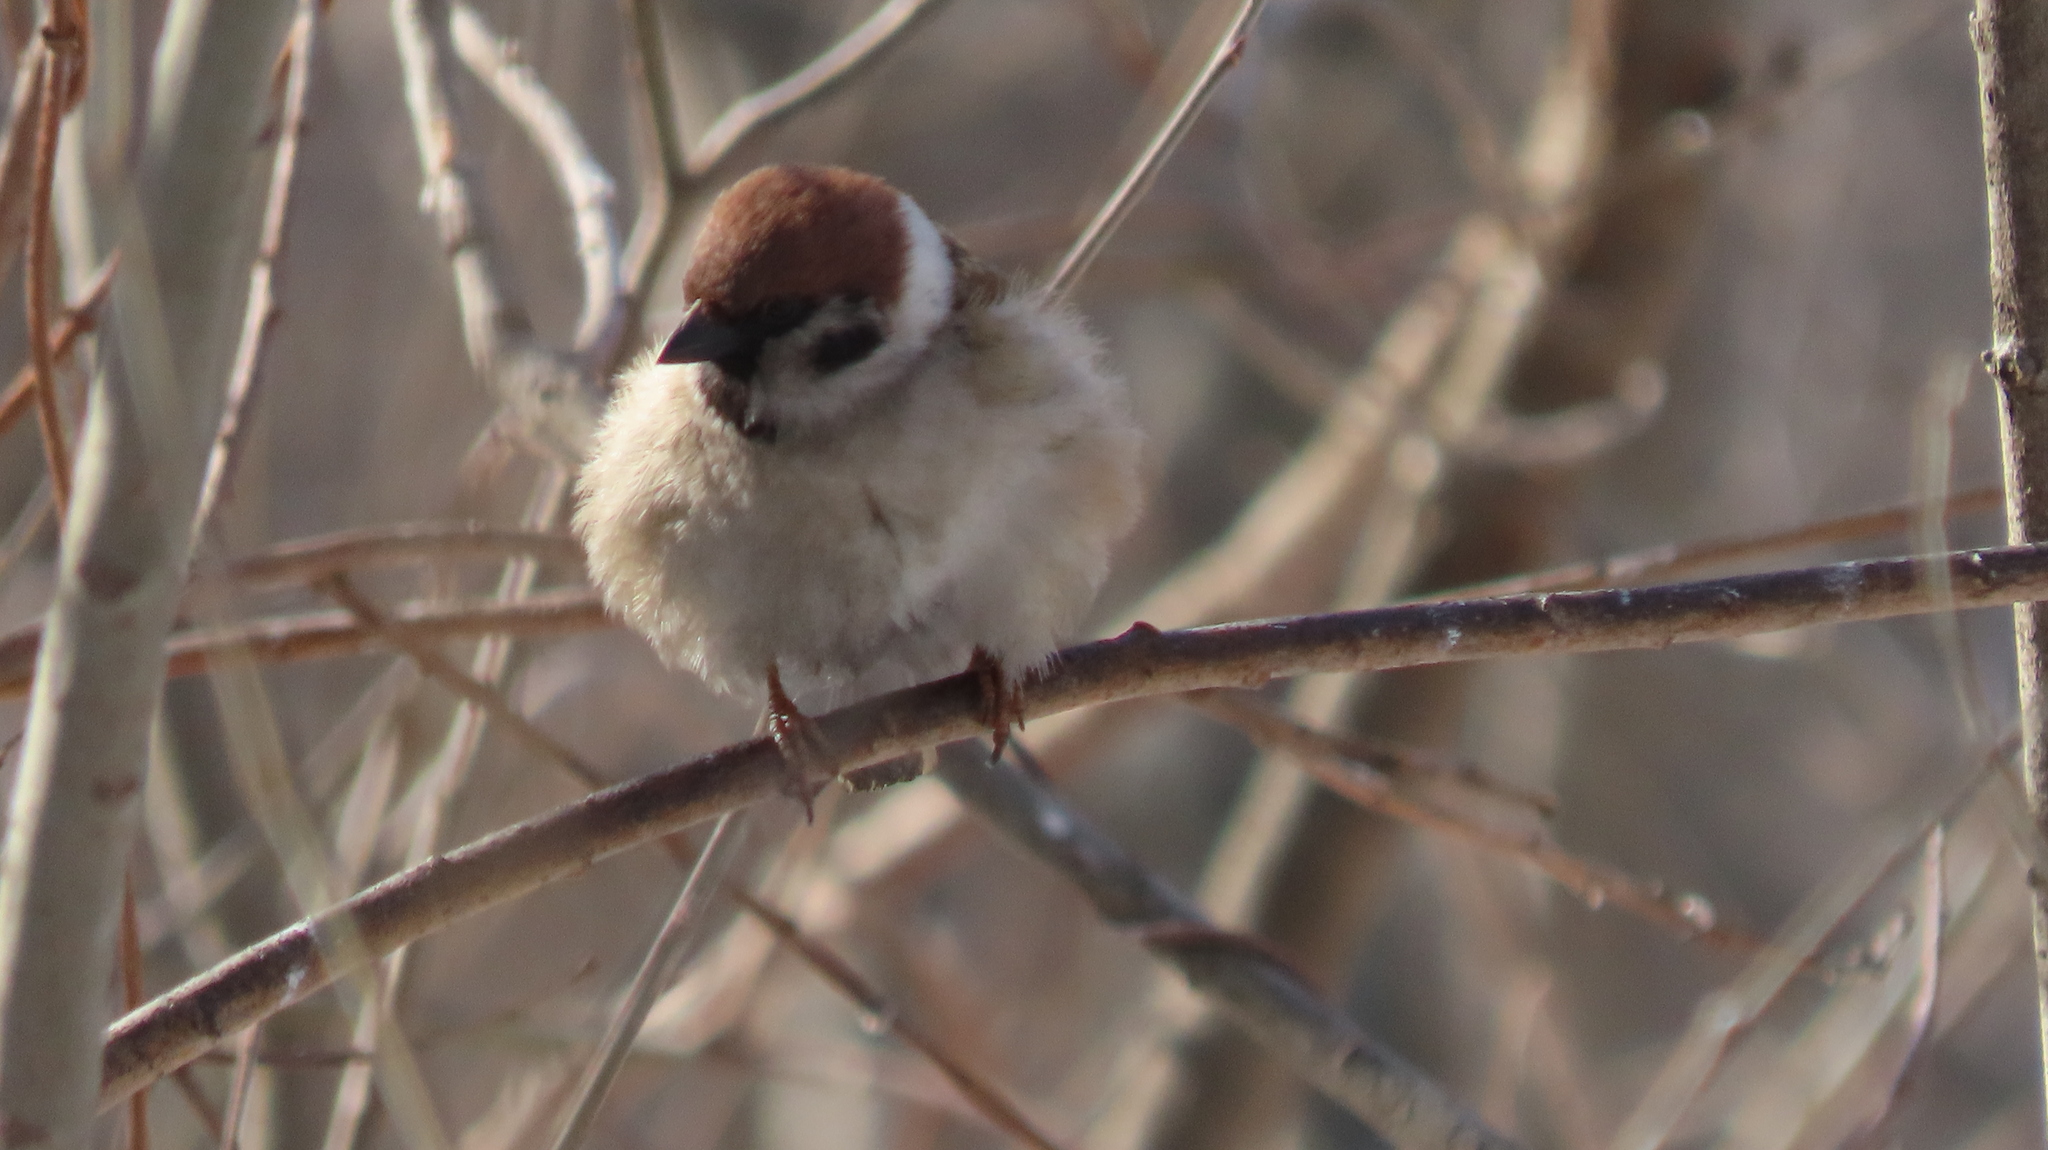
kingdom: Animalia
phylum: Chordata
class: Aves
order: Passeriformes
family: Passeridae
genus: Passer
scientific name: Passer montanus
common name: Eurasian tree sparrow
